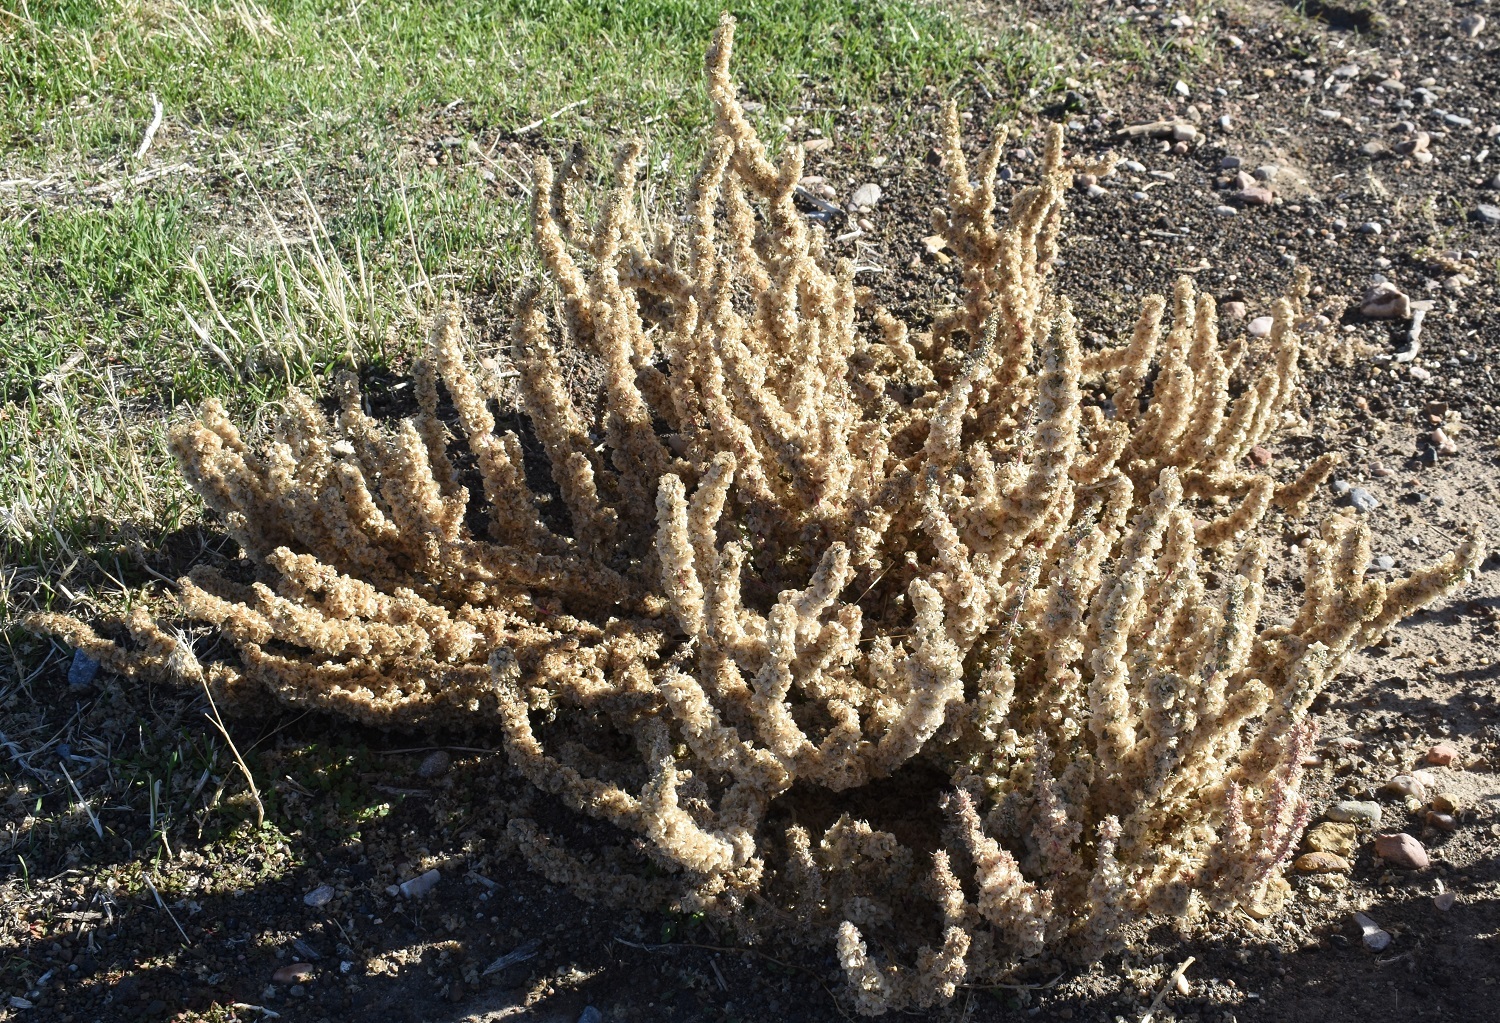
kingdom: Plantae
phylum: Tracheophyta
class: Magnoliopsida
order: Caryophyllales
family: Amaranthaceae
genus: Halogeton
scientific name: Halogeton glomeratus
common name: Saltlover
